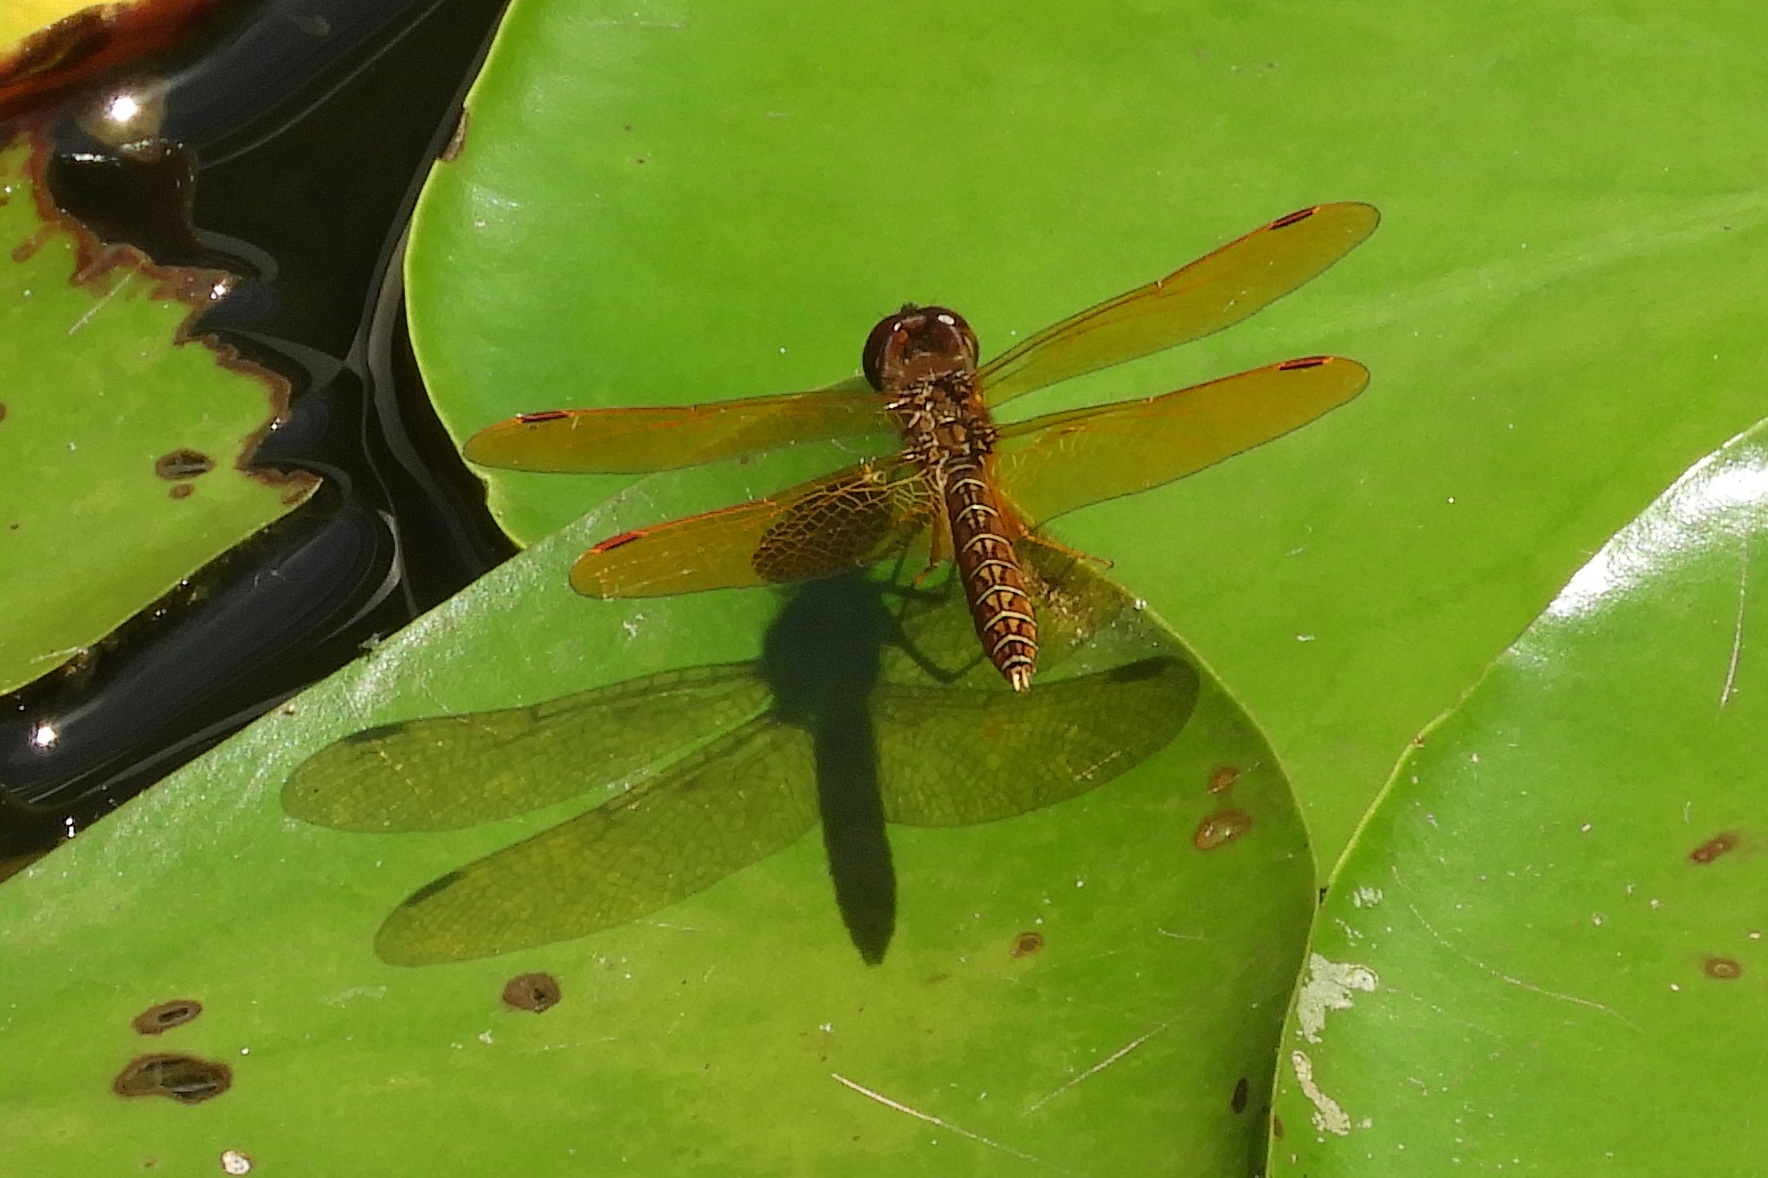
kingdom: Animalia
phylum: Arthropoda
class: Insecta
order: Odonata
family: Libellulidae
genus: Perithemis
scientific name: Perithemis tenera
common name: Eastern amberwing
